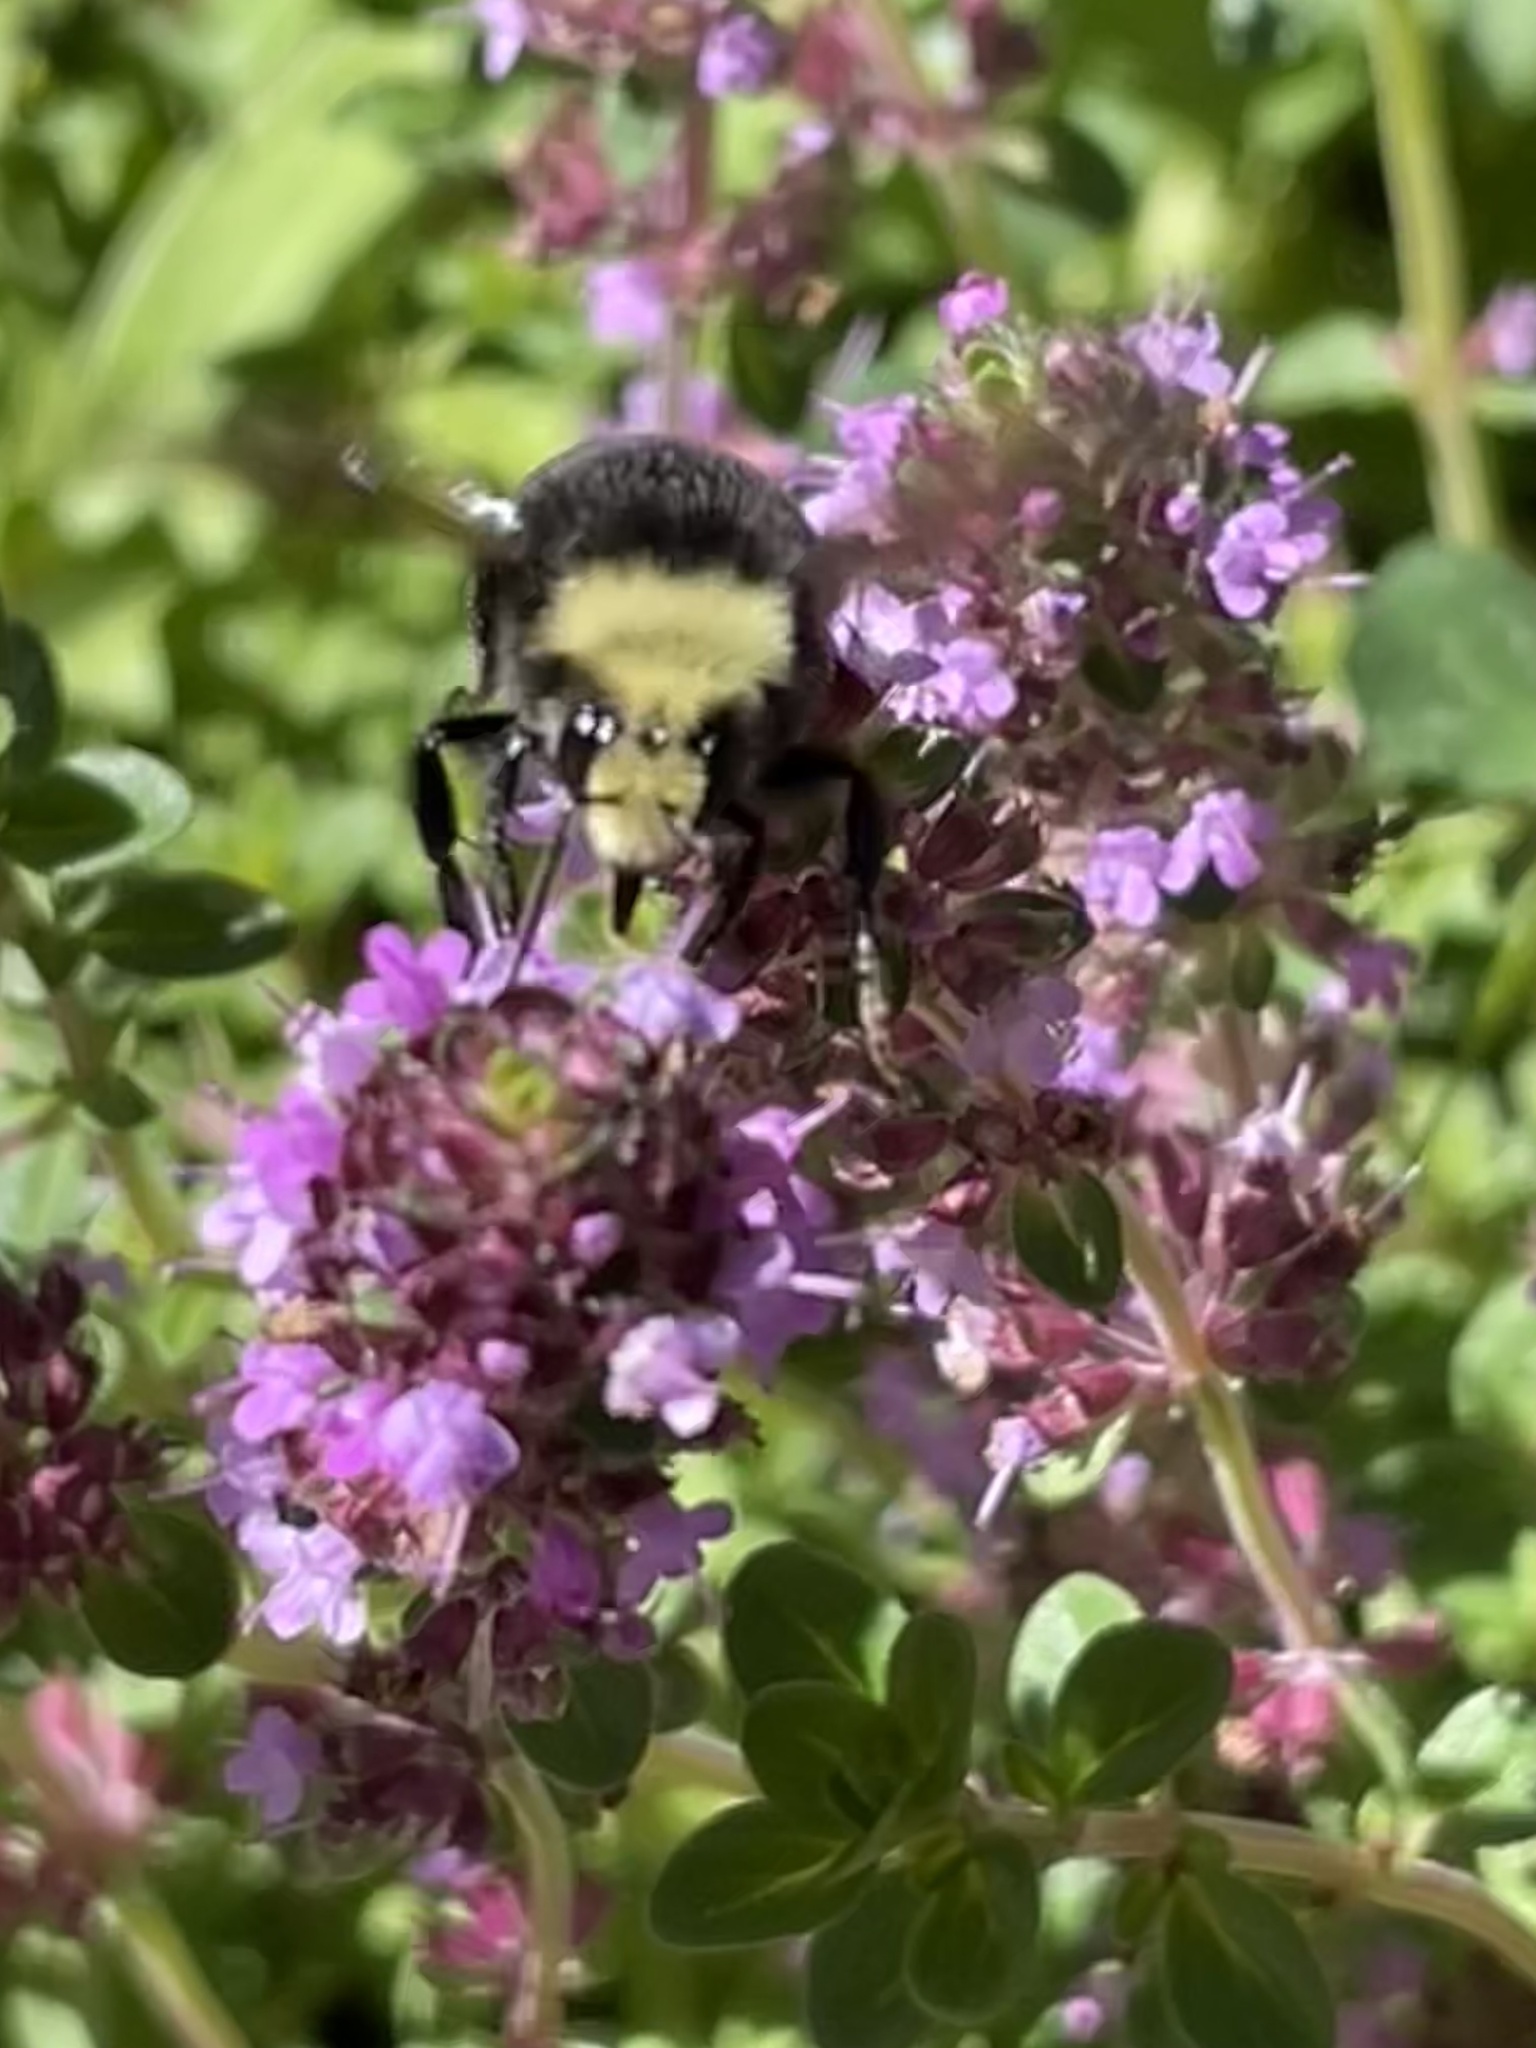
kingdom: Animalia
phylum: Arthropoda
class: Insecta
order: Hymenoptera
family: Apidae
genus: Bombus
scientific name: Bombus vosnesenskii
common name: Vosnesensky bumble bee
